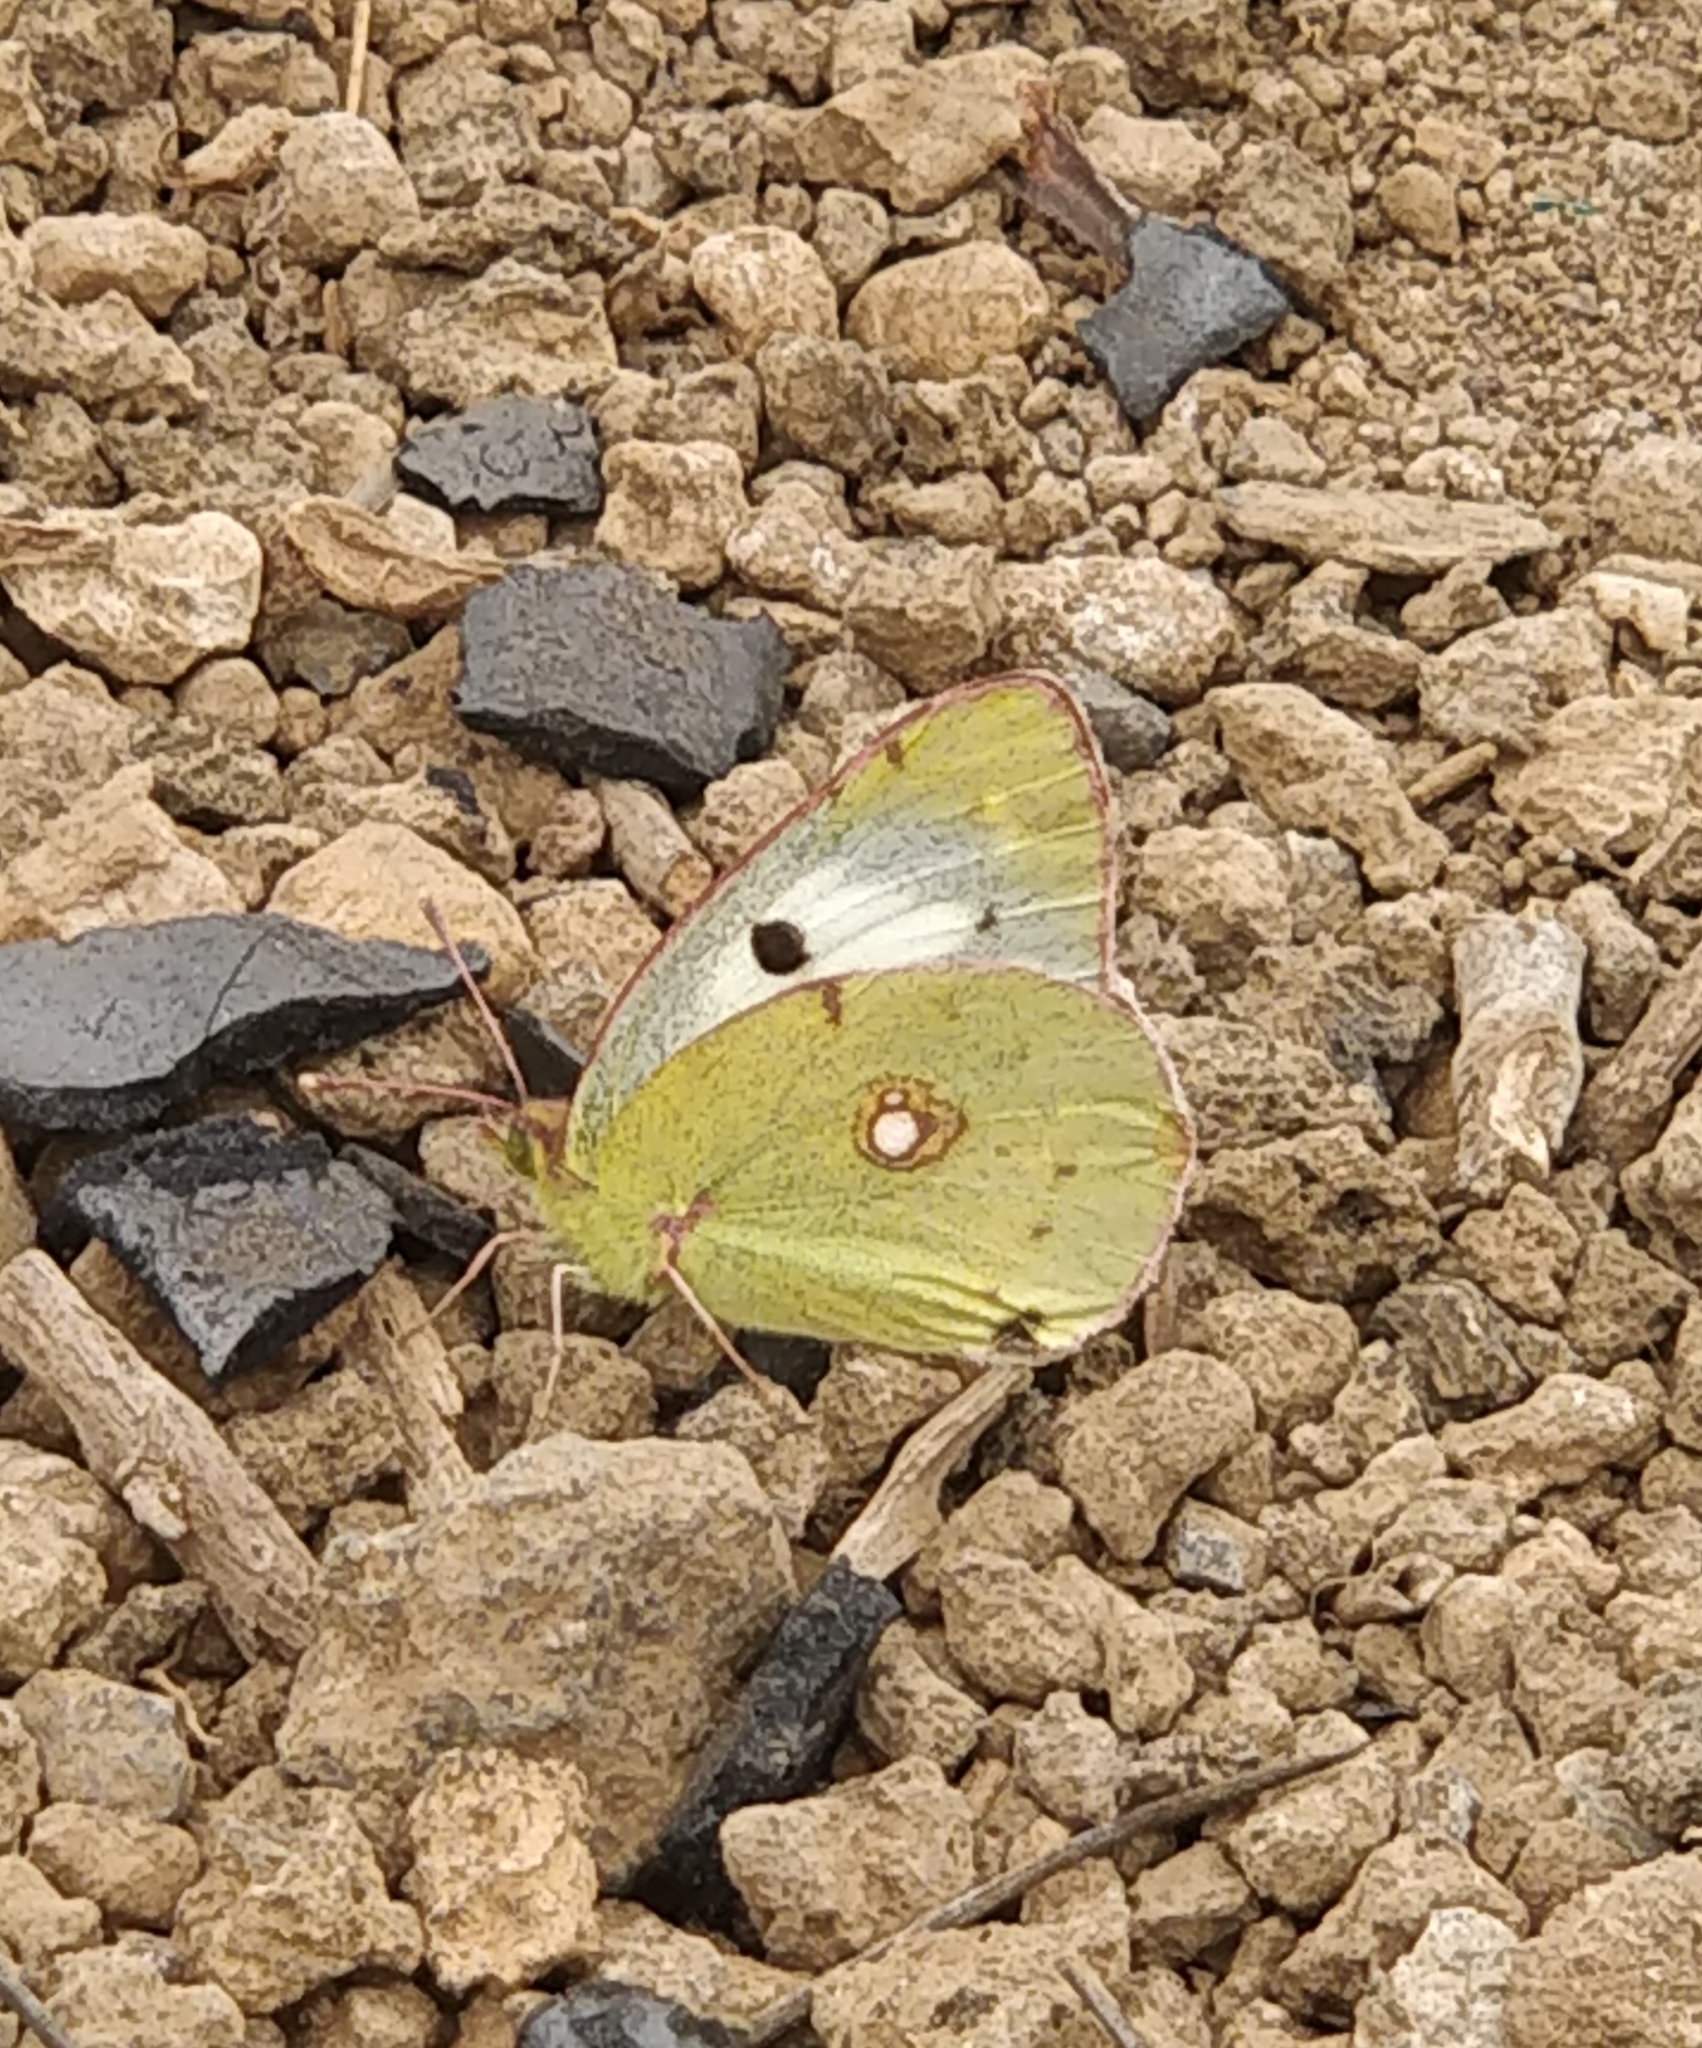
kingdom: Animalia
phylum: Arthropoda
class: Insecta
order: Lepidoptera
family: Pieridae
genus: Colias
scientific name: Colias croceus
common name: Clouded yellow
